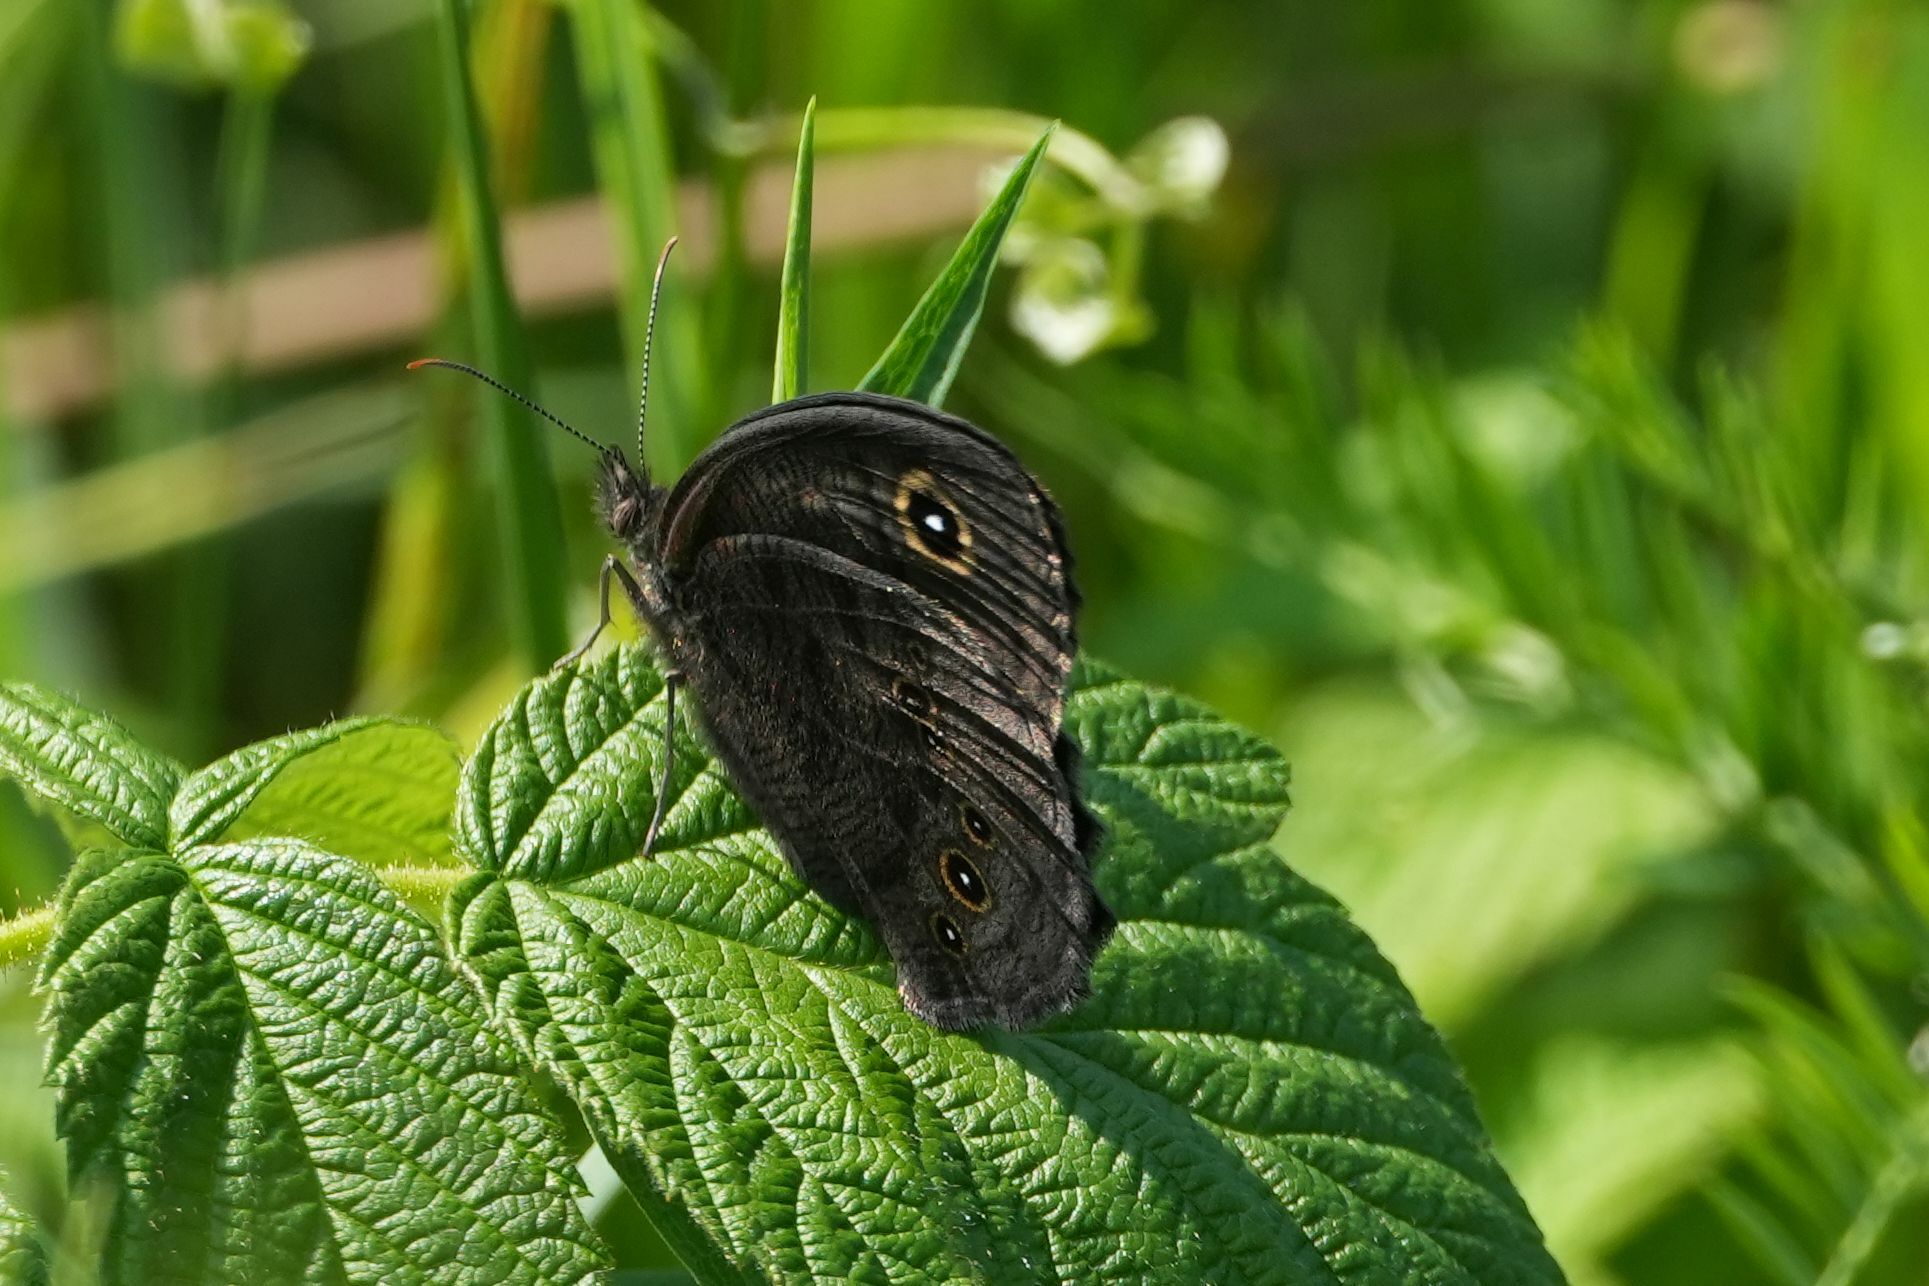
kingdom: Animalia
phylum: Arthropoda
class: Insecta
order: Lepidoptera
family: Nymphalidae
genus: Cercyonis
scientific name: Cercyonis pegala
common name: Common wood-nymph
